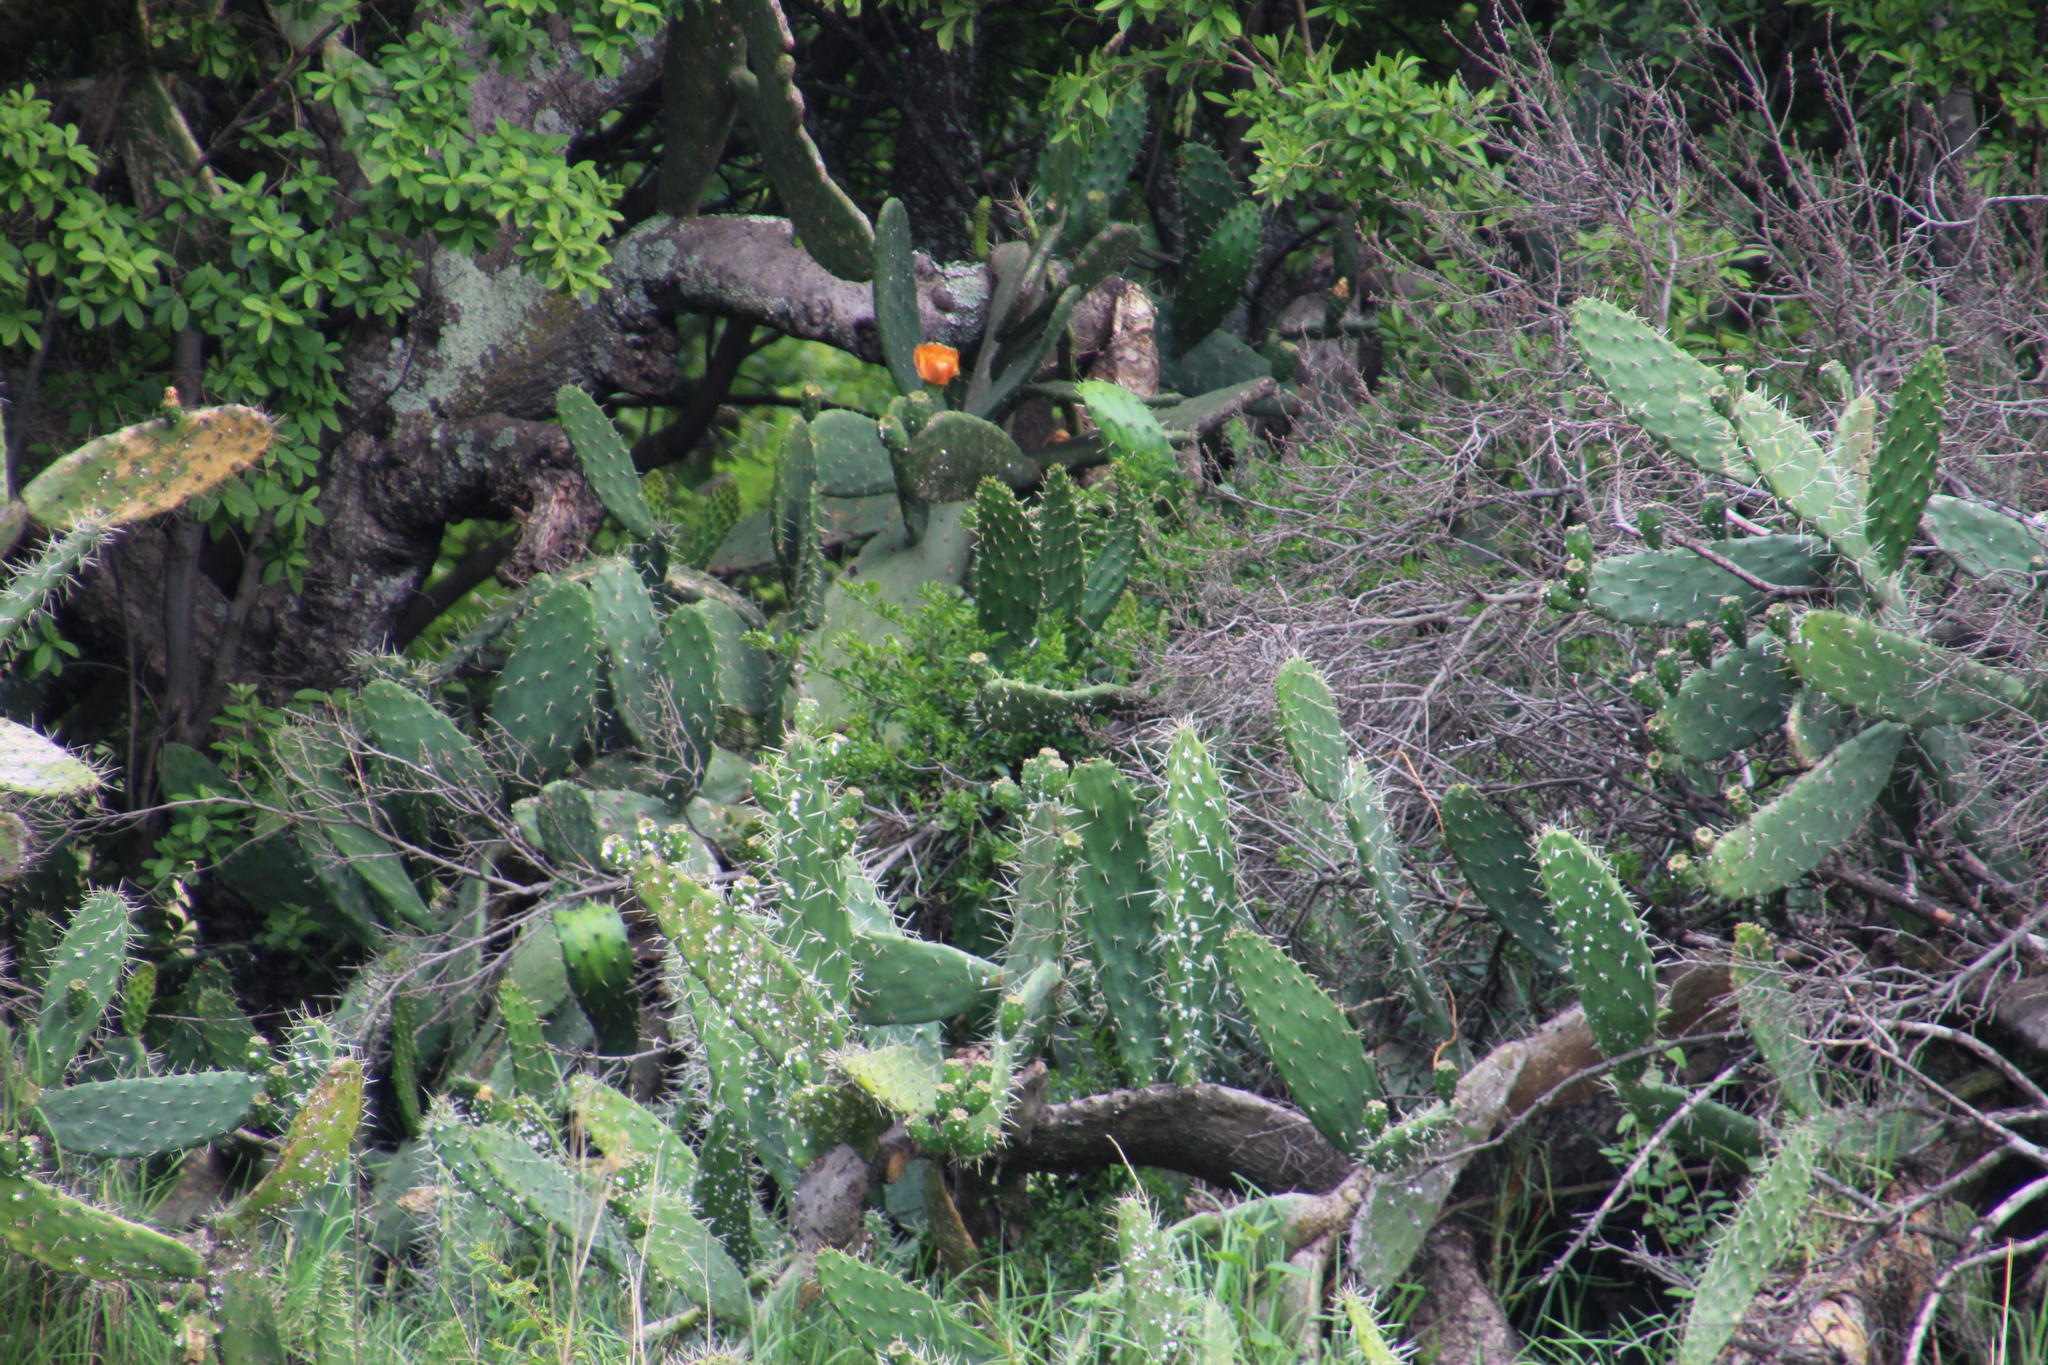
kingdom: Plantae
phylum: Tracheophyta
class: Magnoliopsida
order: Caryophyllales
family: Cactaceae
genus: Opuntia
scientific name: Opuntia ficus-indica
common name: Barbary fig
